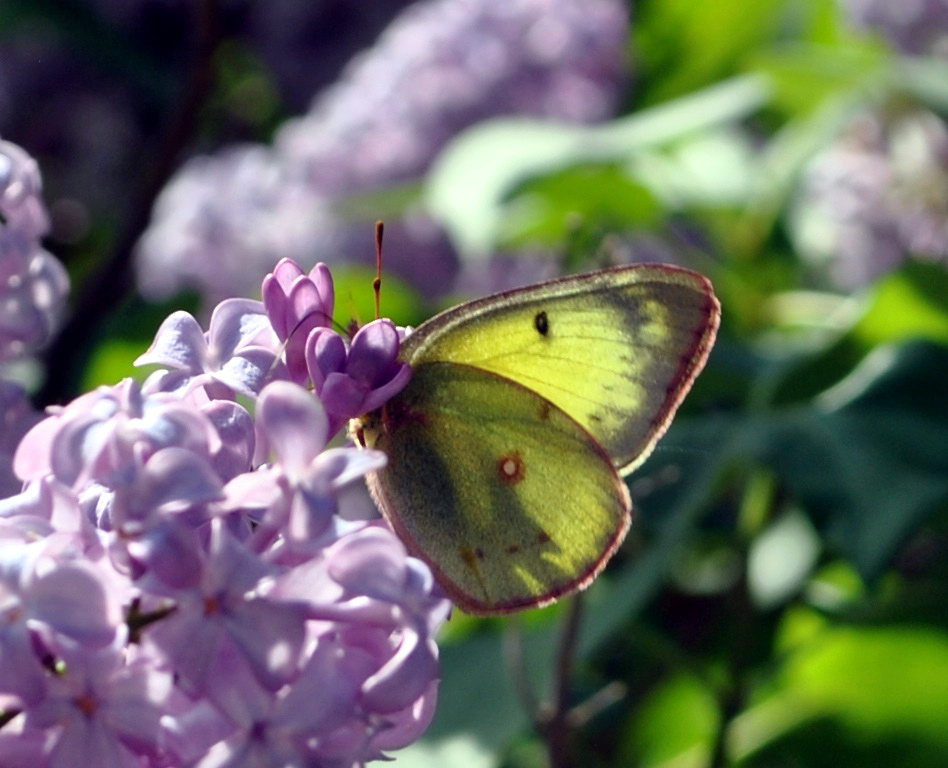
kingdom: Animalia
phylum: Arthropoda
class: Insecta
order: Lepidoptera
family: Pieridae
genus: Colias
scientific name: Colias philodice
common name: Clouded sulphur
